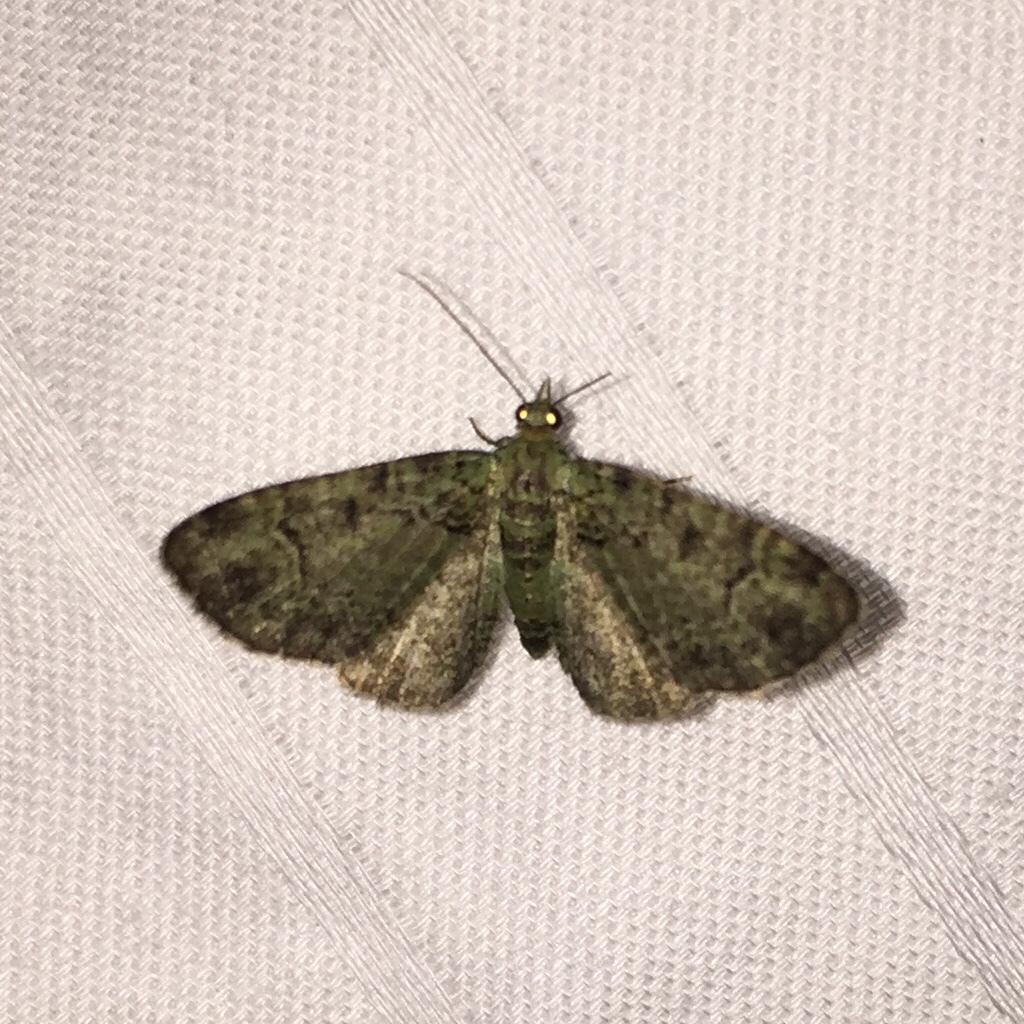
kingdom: Animalia
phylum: Arthropoda
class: Insecta
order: Lepidoptera
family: Geometridae
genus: Pasiphila
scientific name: Pasiphila rectangulata
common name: Green pug
